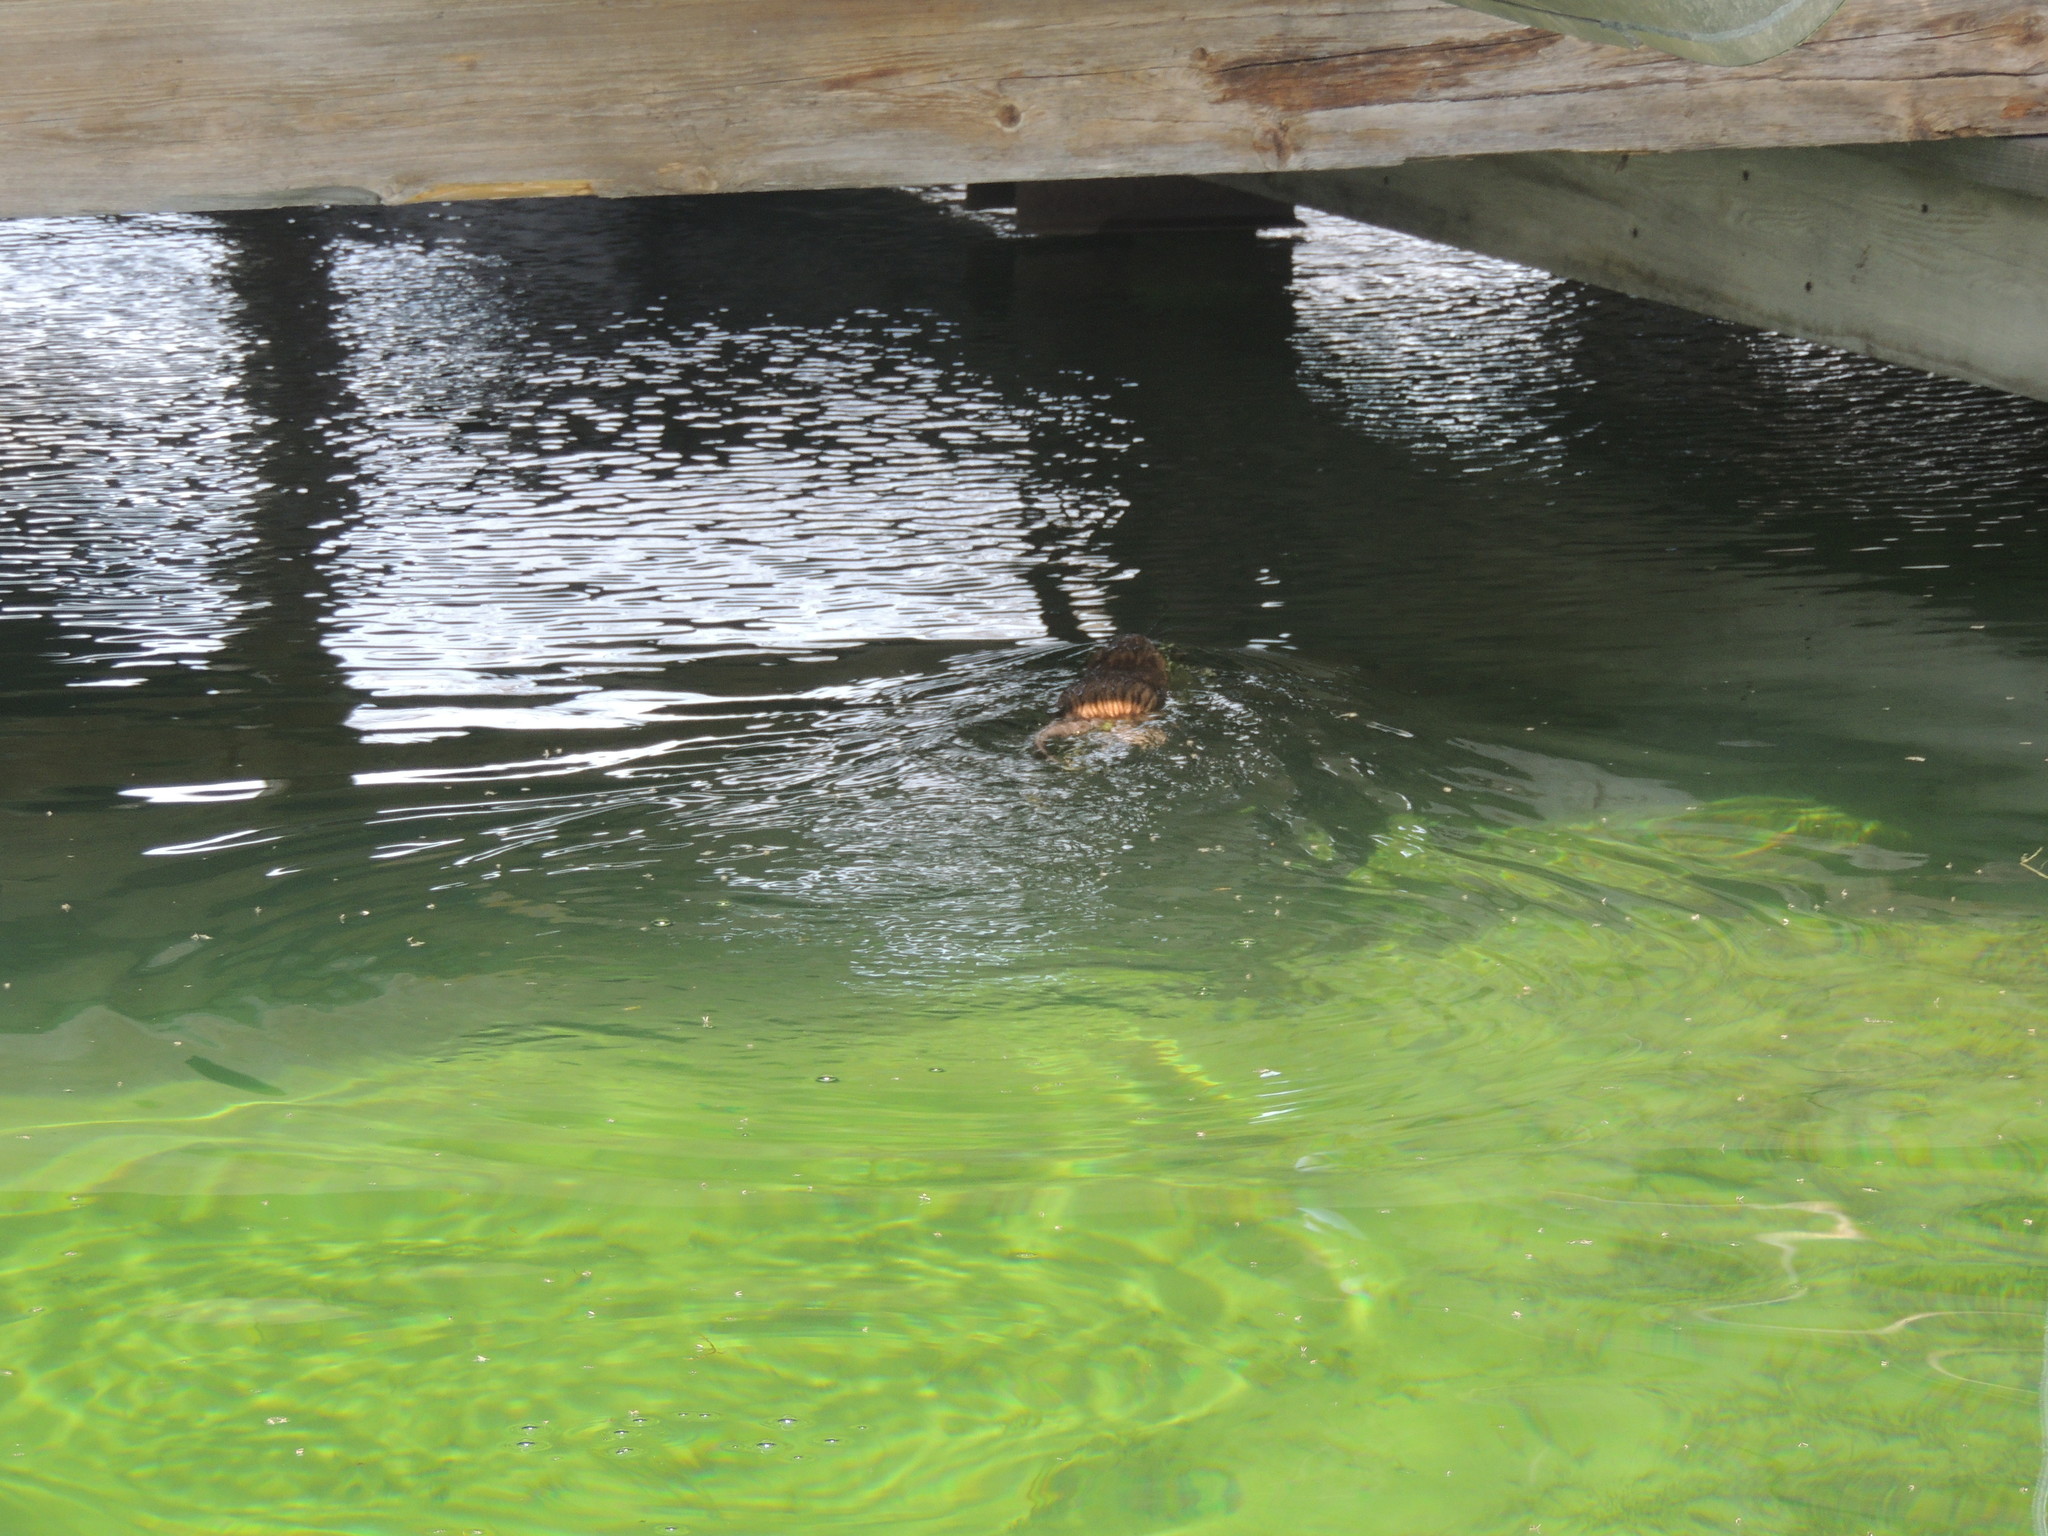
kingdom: Animalia
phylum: Chordata
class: Mammalia
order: Rodentia
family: Cricetidae
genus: Ondatra
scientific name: Ondatra zibethicus
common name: Muskrat
